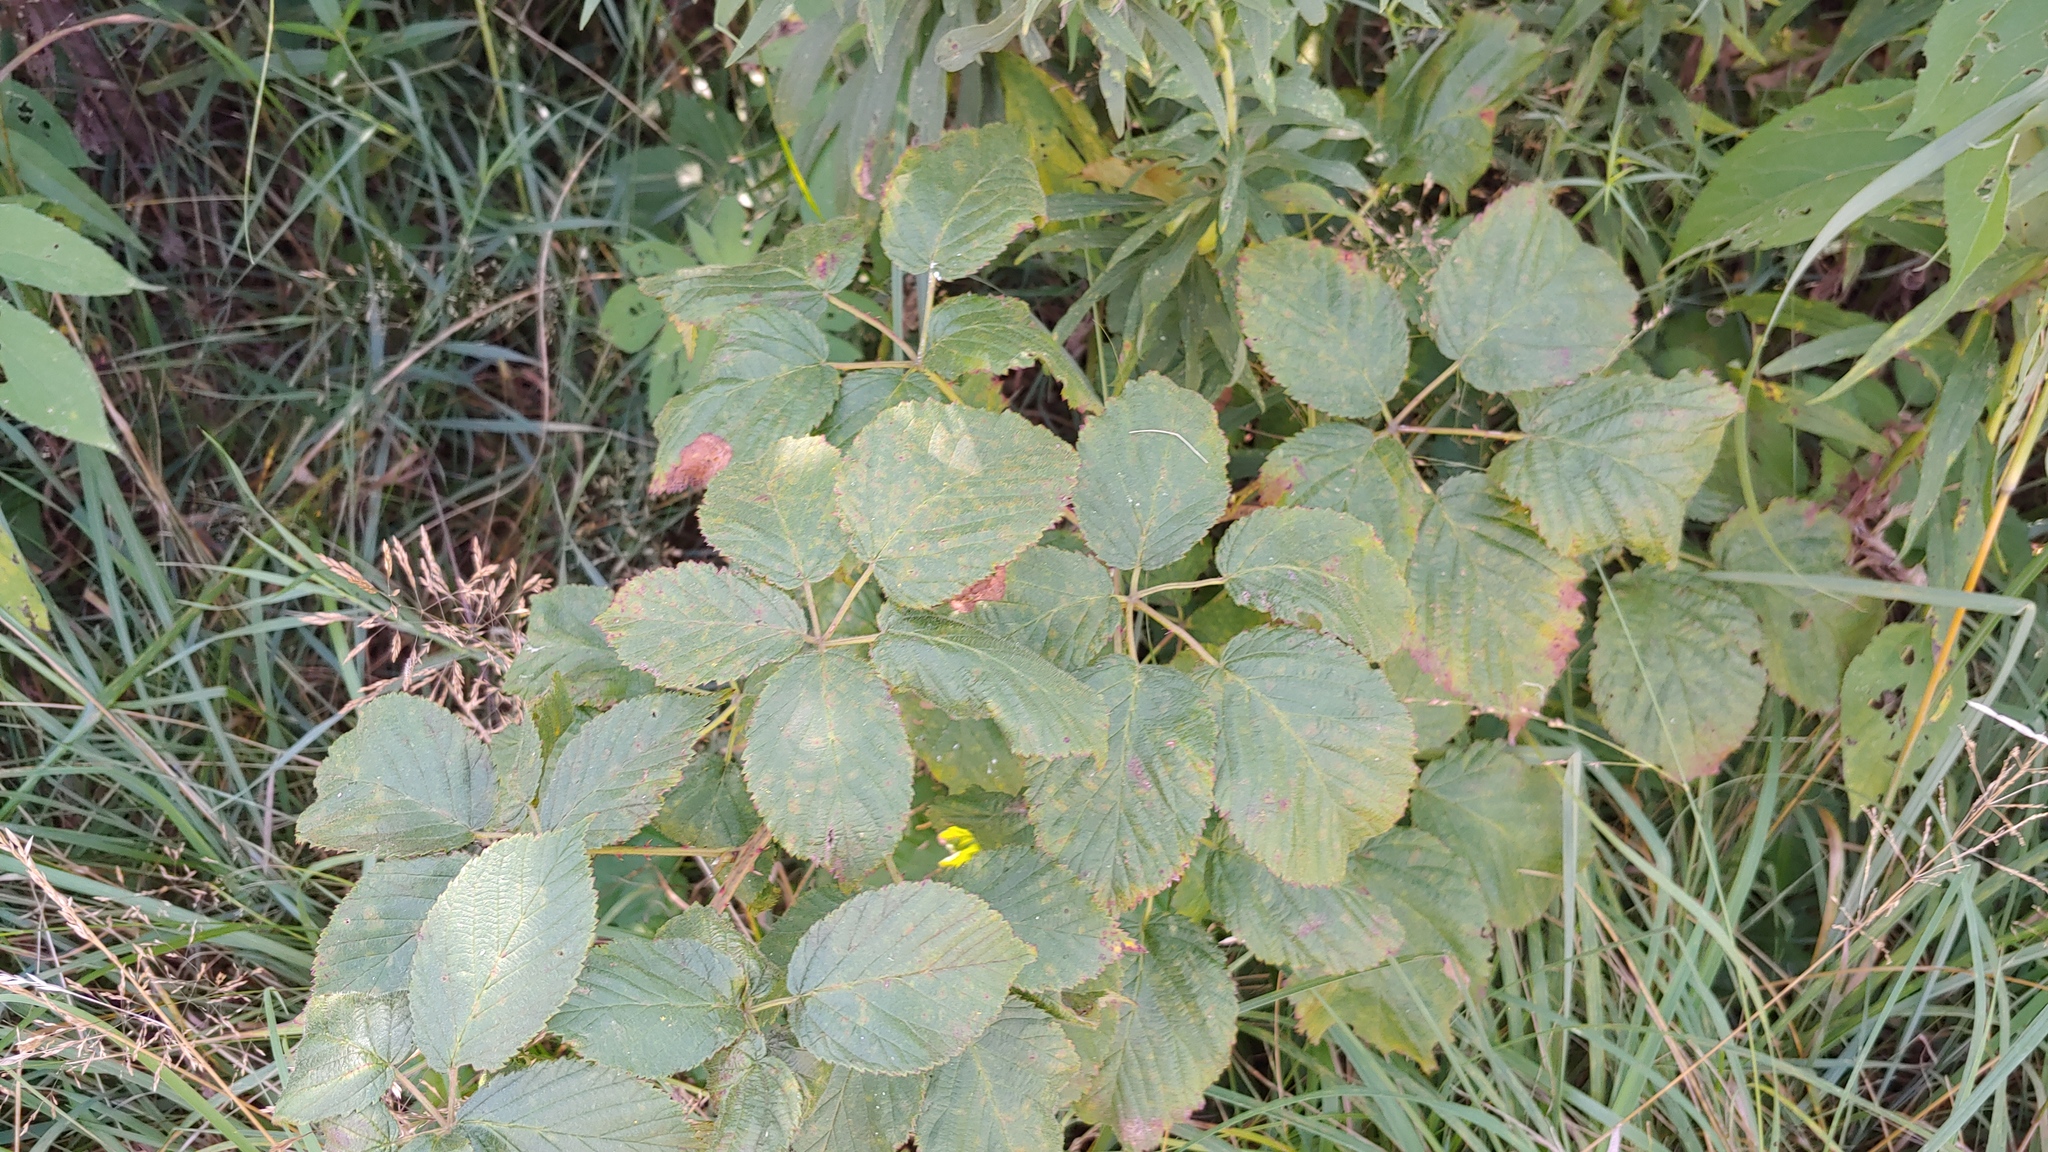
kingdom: Plantae
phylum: Tracheophyta
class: Magnoliopsida
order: Rosales
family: Rosaceae
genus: Rubus
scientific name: Rubus allegheniensis
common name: Allegheny blackberry
